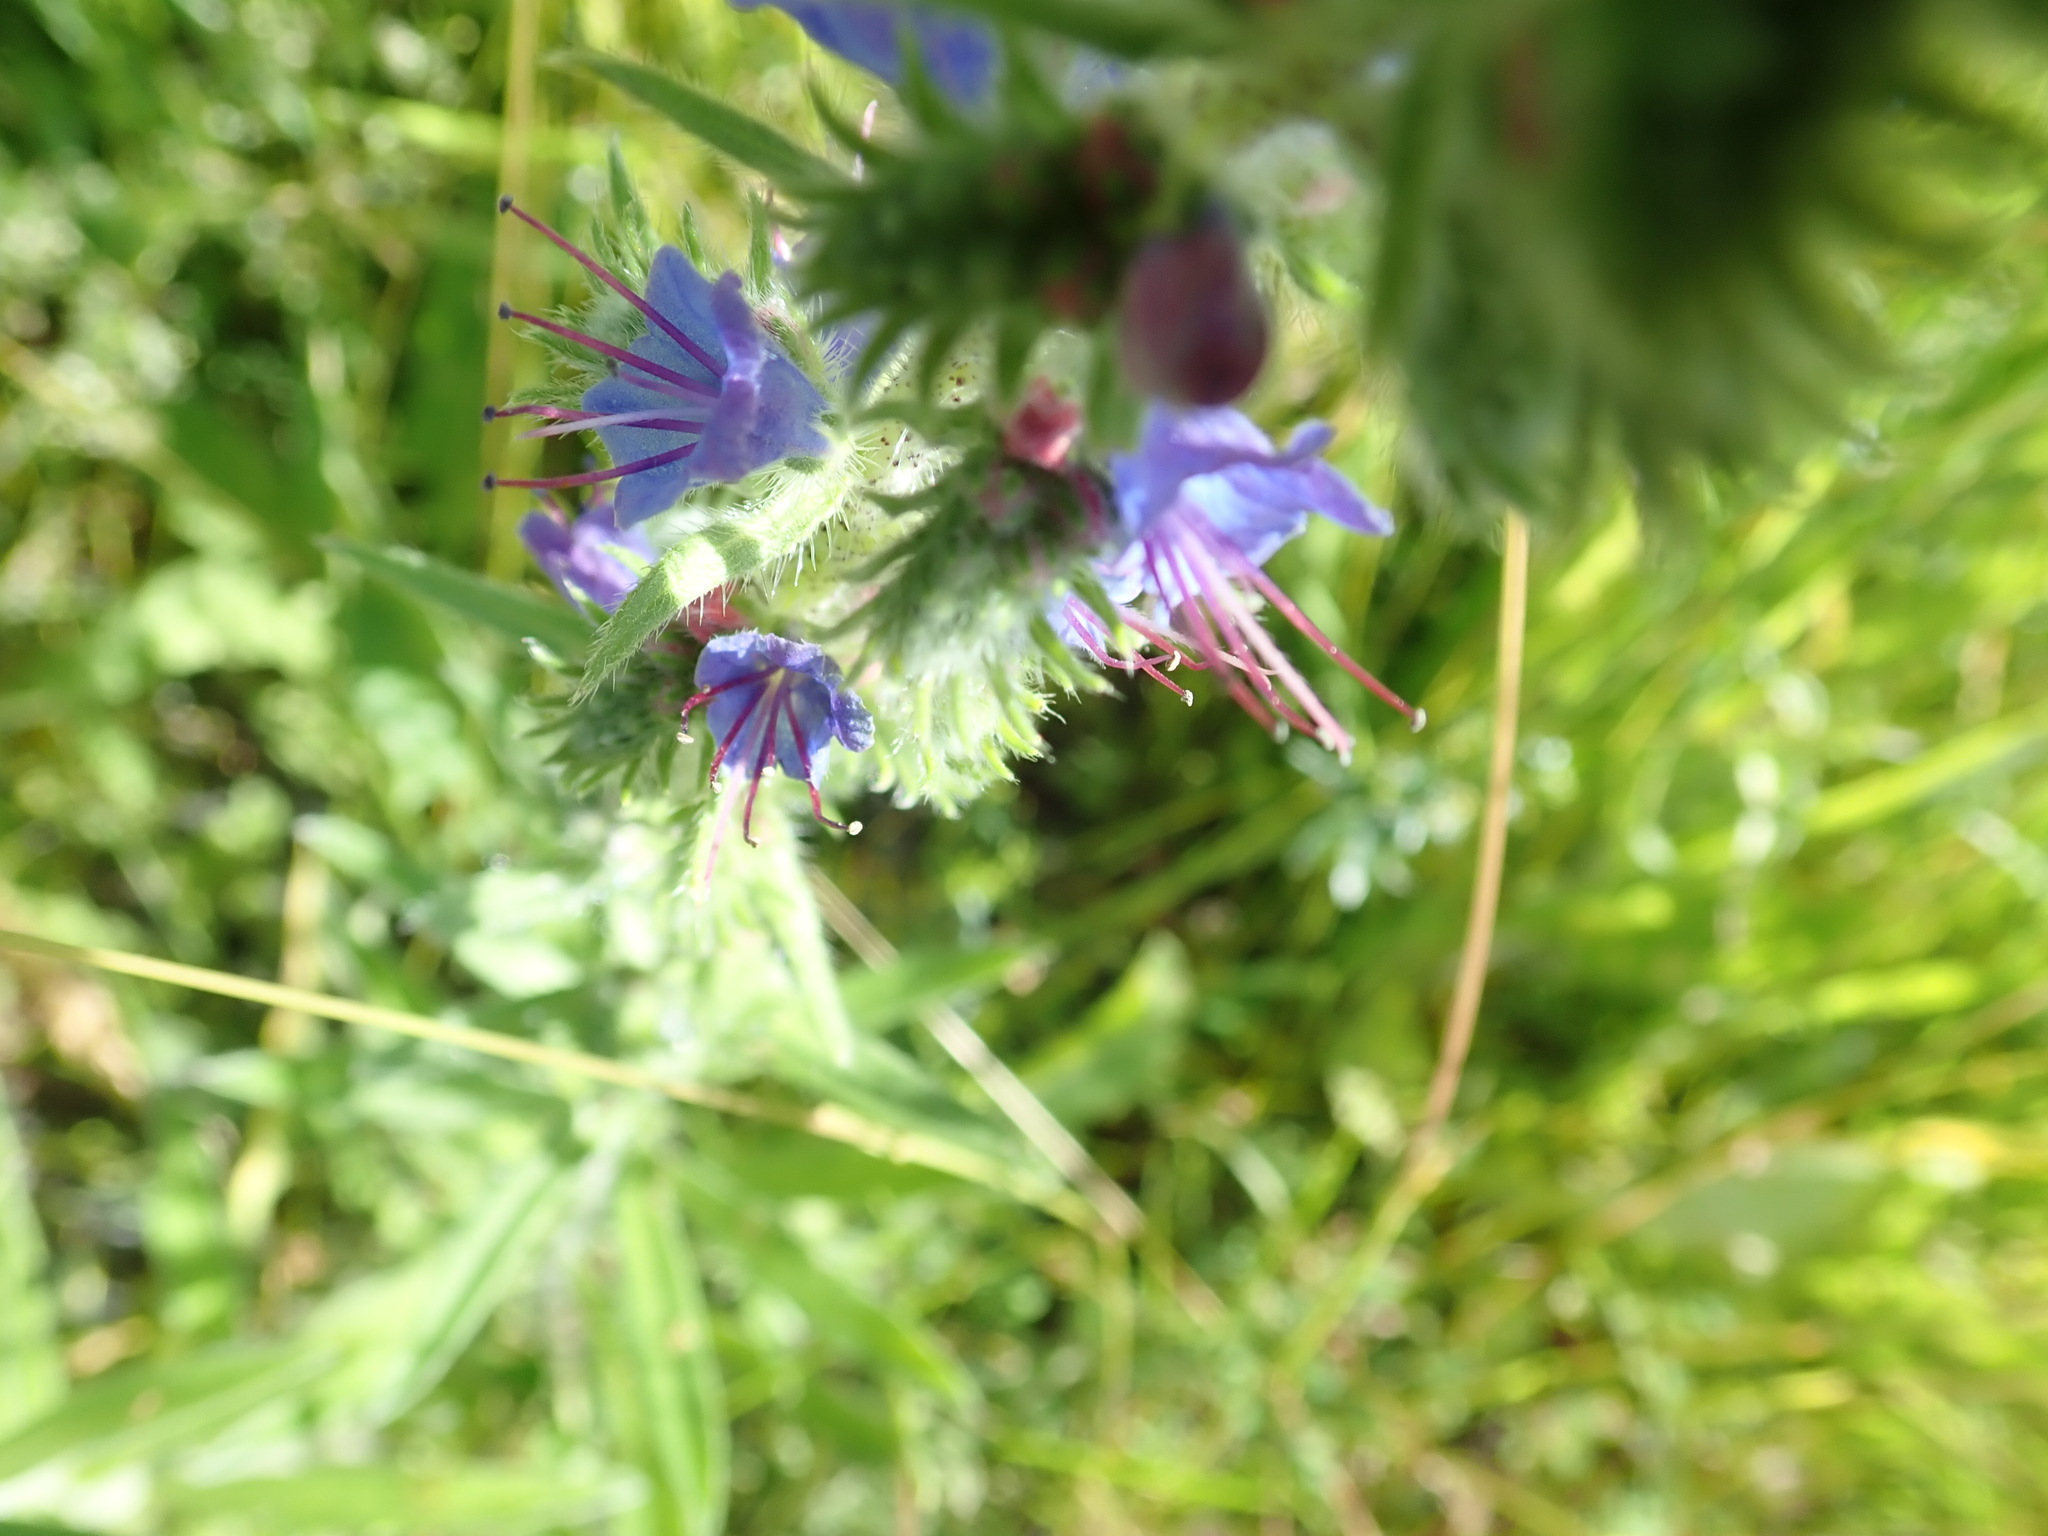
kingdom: Plantae
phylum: Tracheophyta
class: Magnoliopsida
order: Boraginales
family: Boraginaceae
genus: Echium
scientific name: Echium vulgare
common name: Common viper's bugloss
